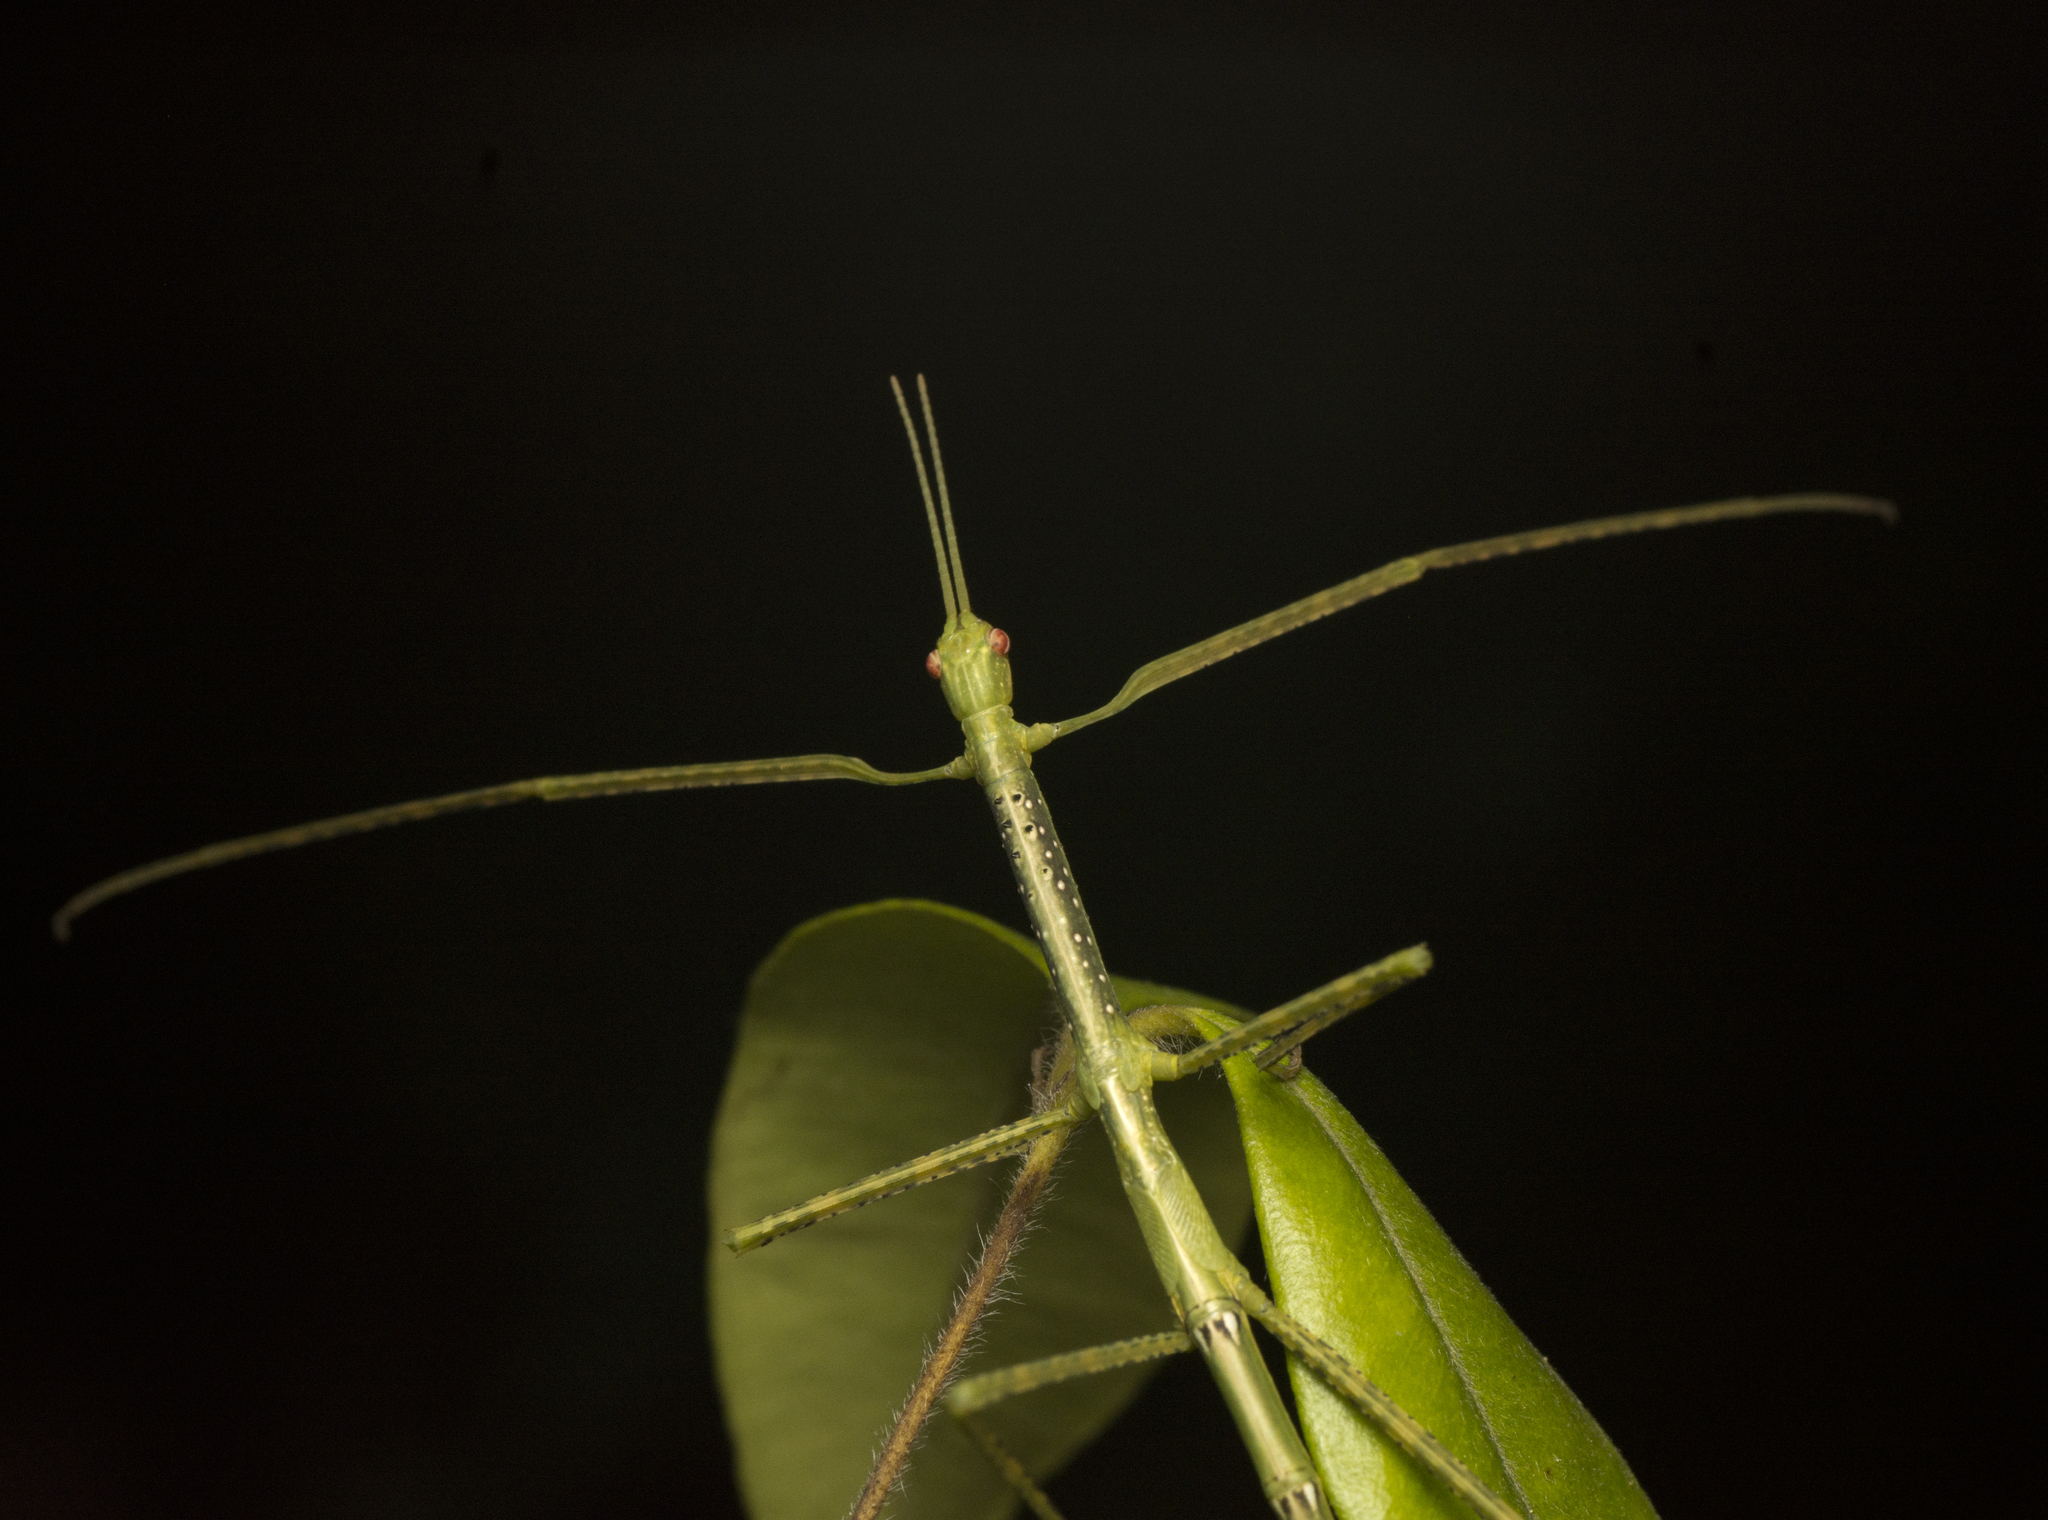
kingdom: Animalia
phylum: Arthropoda
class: Insecta
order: Phasmida
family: Phasmatidae
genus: Anchiale
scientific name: Anchiale austrotessulata
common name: Tessellated stick-insect
